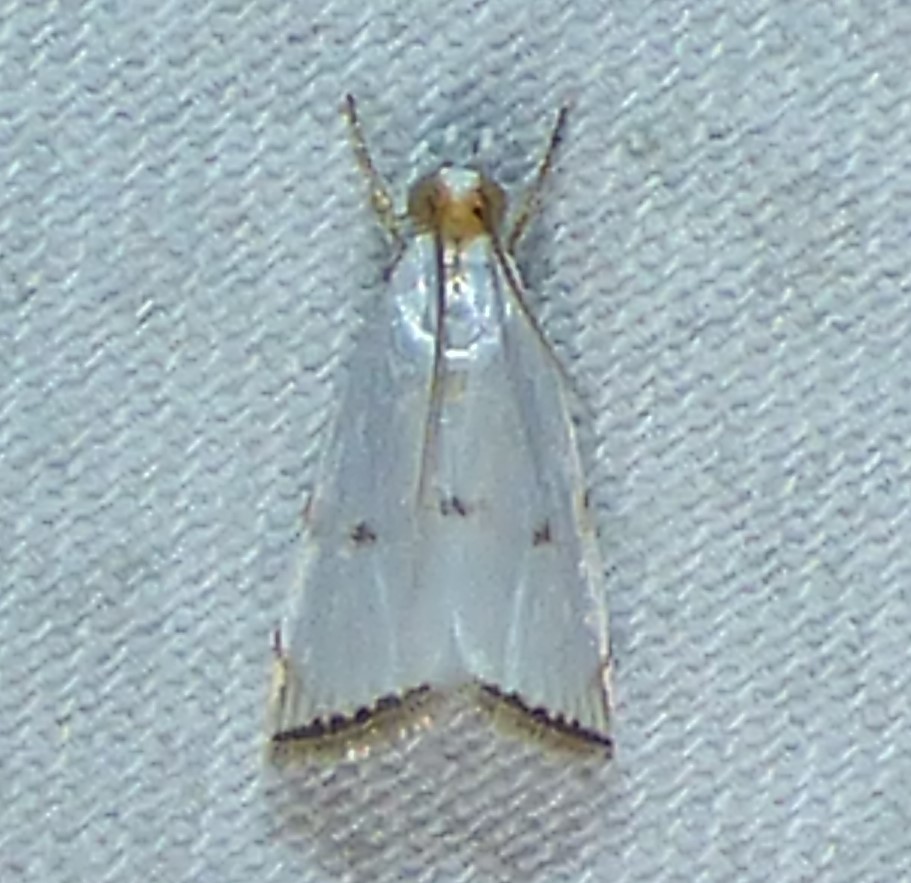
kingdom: Animalia
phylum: Arthropoda
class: Insecta
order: Lepidoptera
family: Crambidae
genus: Argyria
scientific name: Argyria pusillalis
